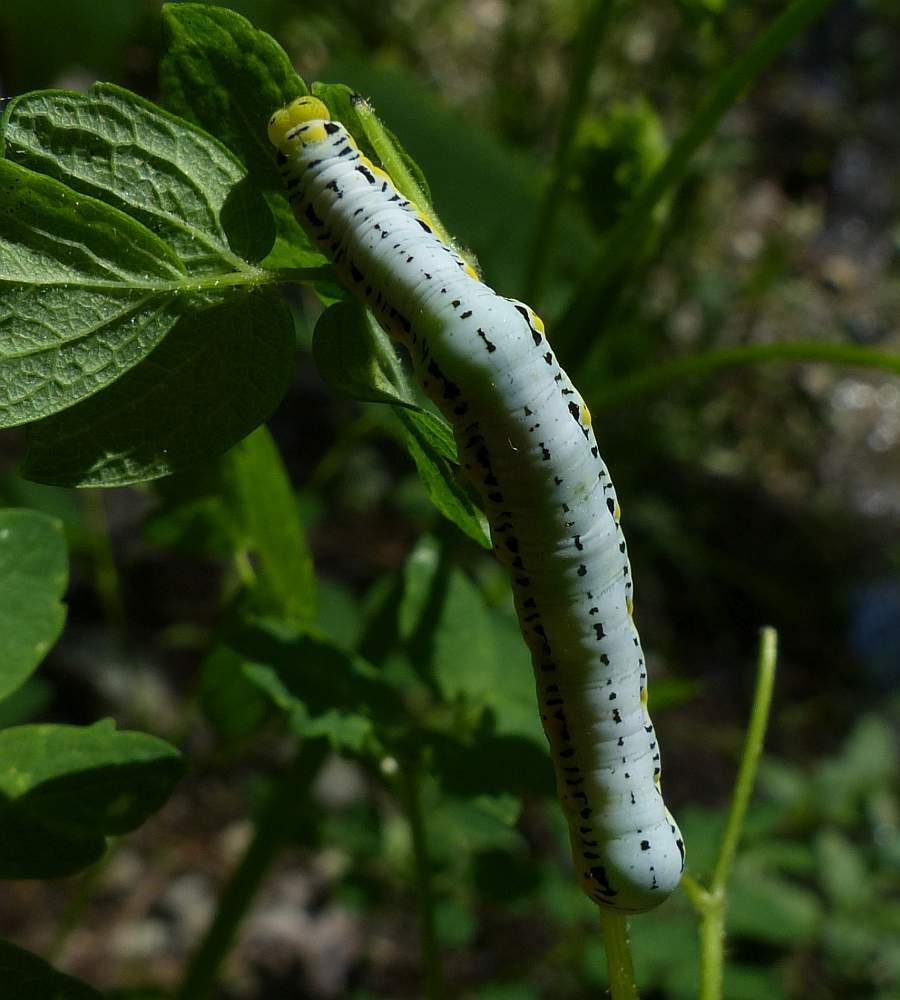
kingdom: Animalia
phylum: Arthropoda
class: Insecta
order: Lepidoptera
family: Erebidae
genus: Calyptra
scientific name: Calyptra canadensis
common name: Canadian owlet
